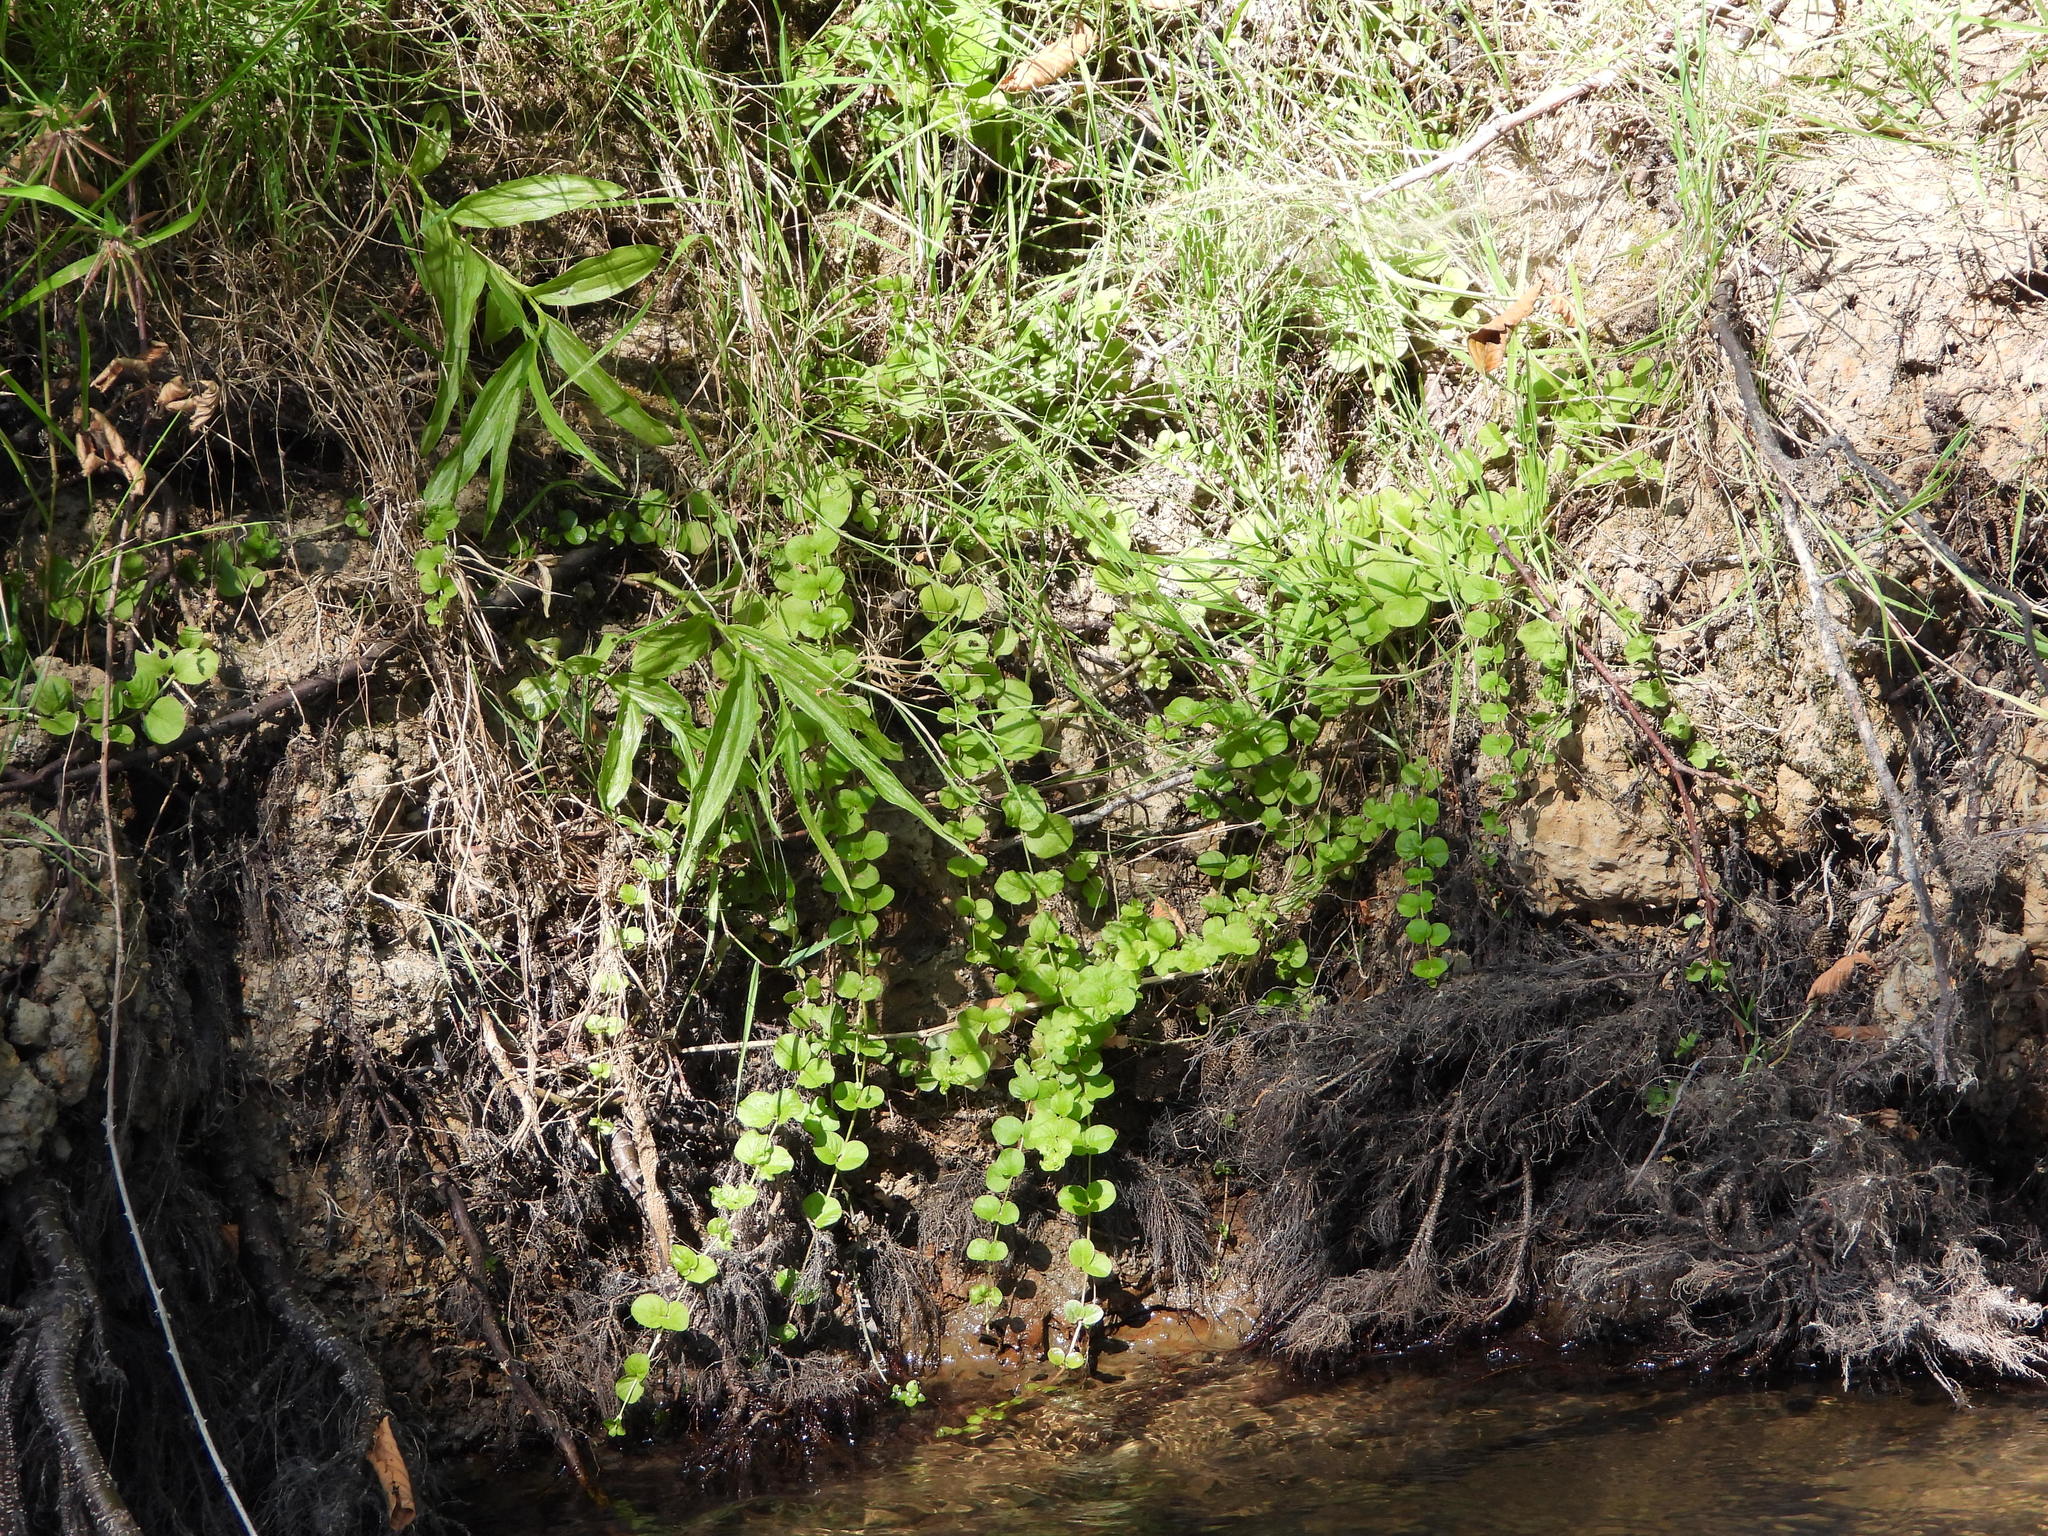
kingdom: Plantae
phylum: Tracheophyta
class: Magnoliopsida
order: Ericales
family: Primulaceae
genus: Lysimachia
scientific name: Lysimachia nummularia
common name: Moneywort
